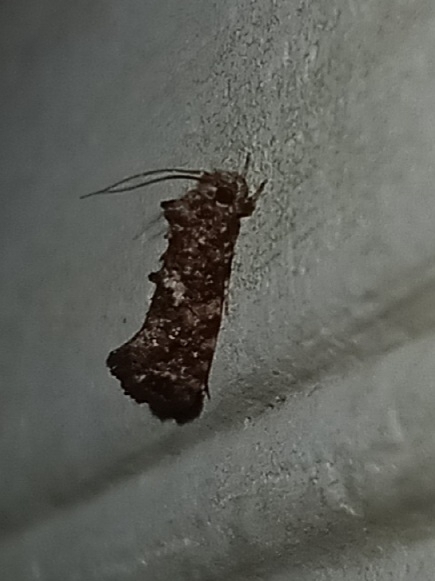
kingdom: Animalia
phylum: Arthropoda
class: Insecta
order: Lepidoptera
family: Tineidae
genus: Acrolophus
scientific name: Acrolophus cressoni
